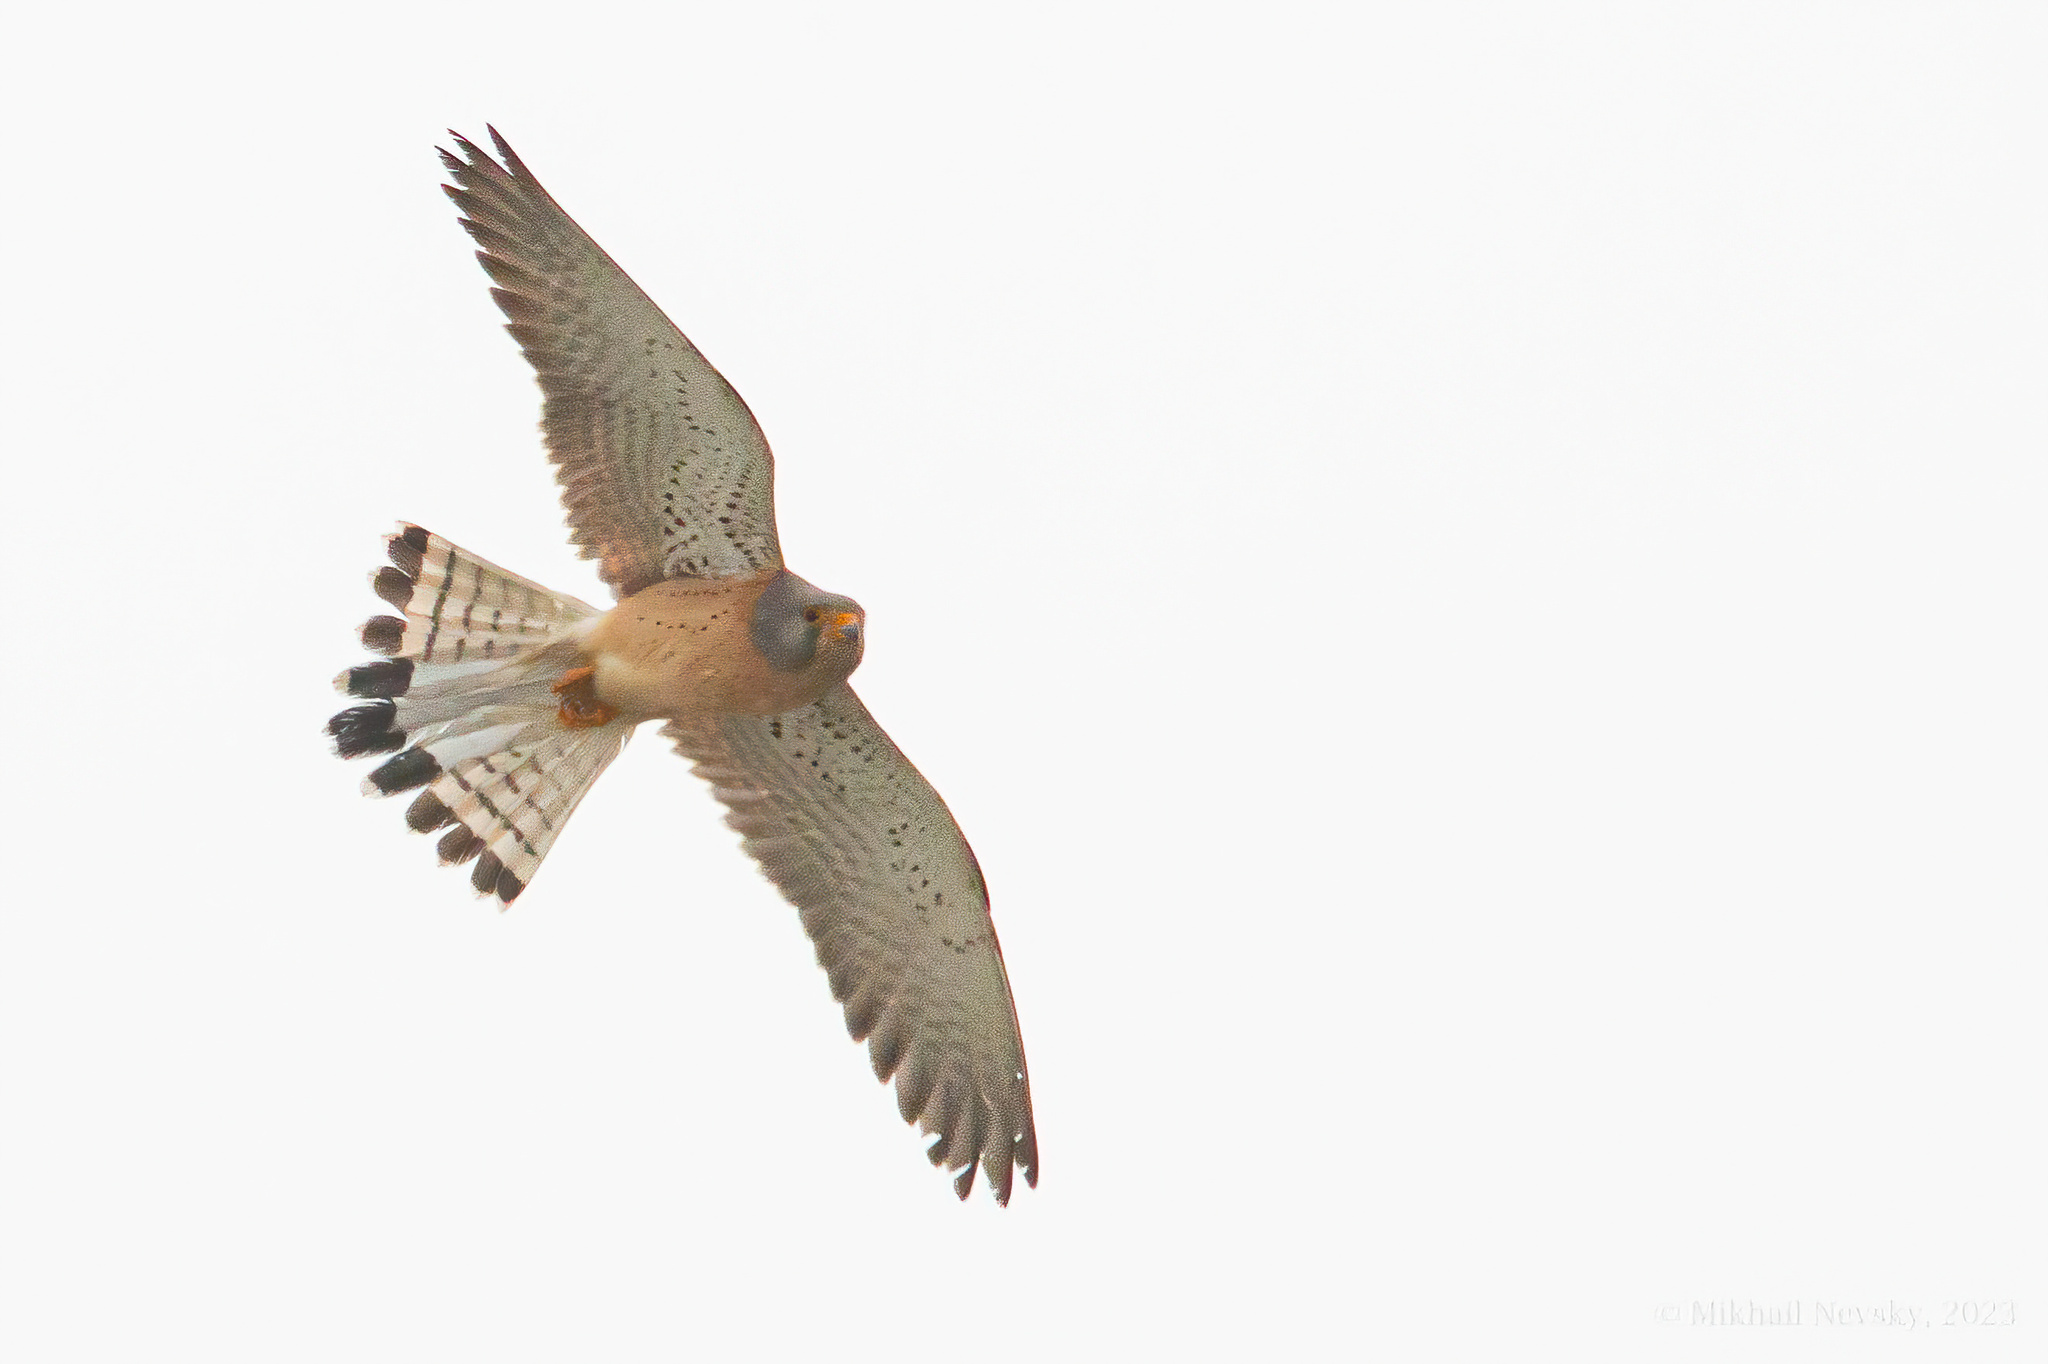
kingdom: Animalia
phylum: Chordata
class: Aves
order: Falconiformes
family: Falconidae
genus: Falco
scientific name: Falco naumanni
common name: Lesser kestrel
